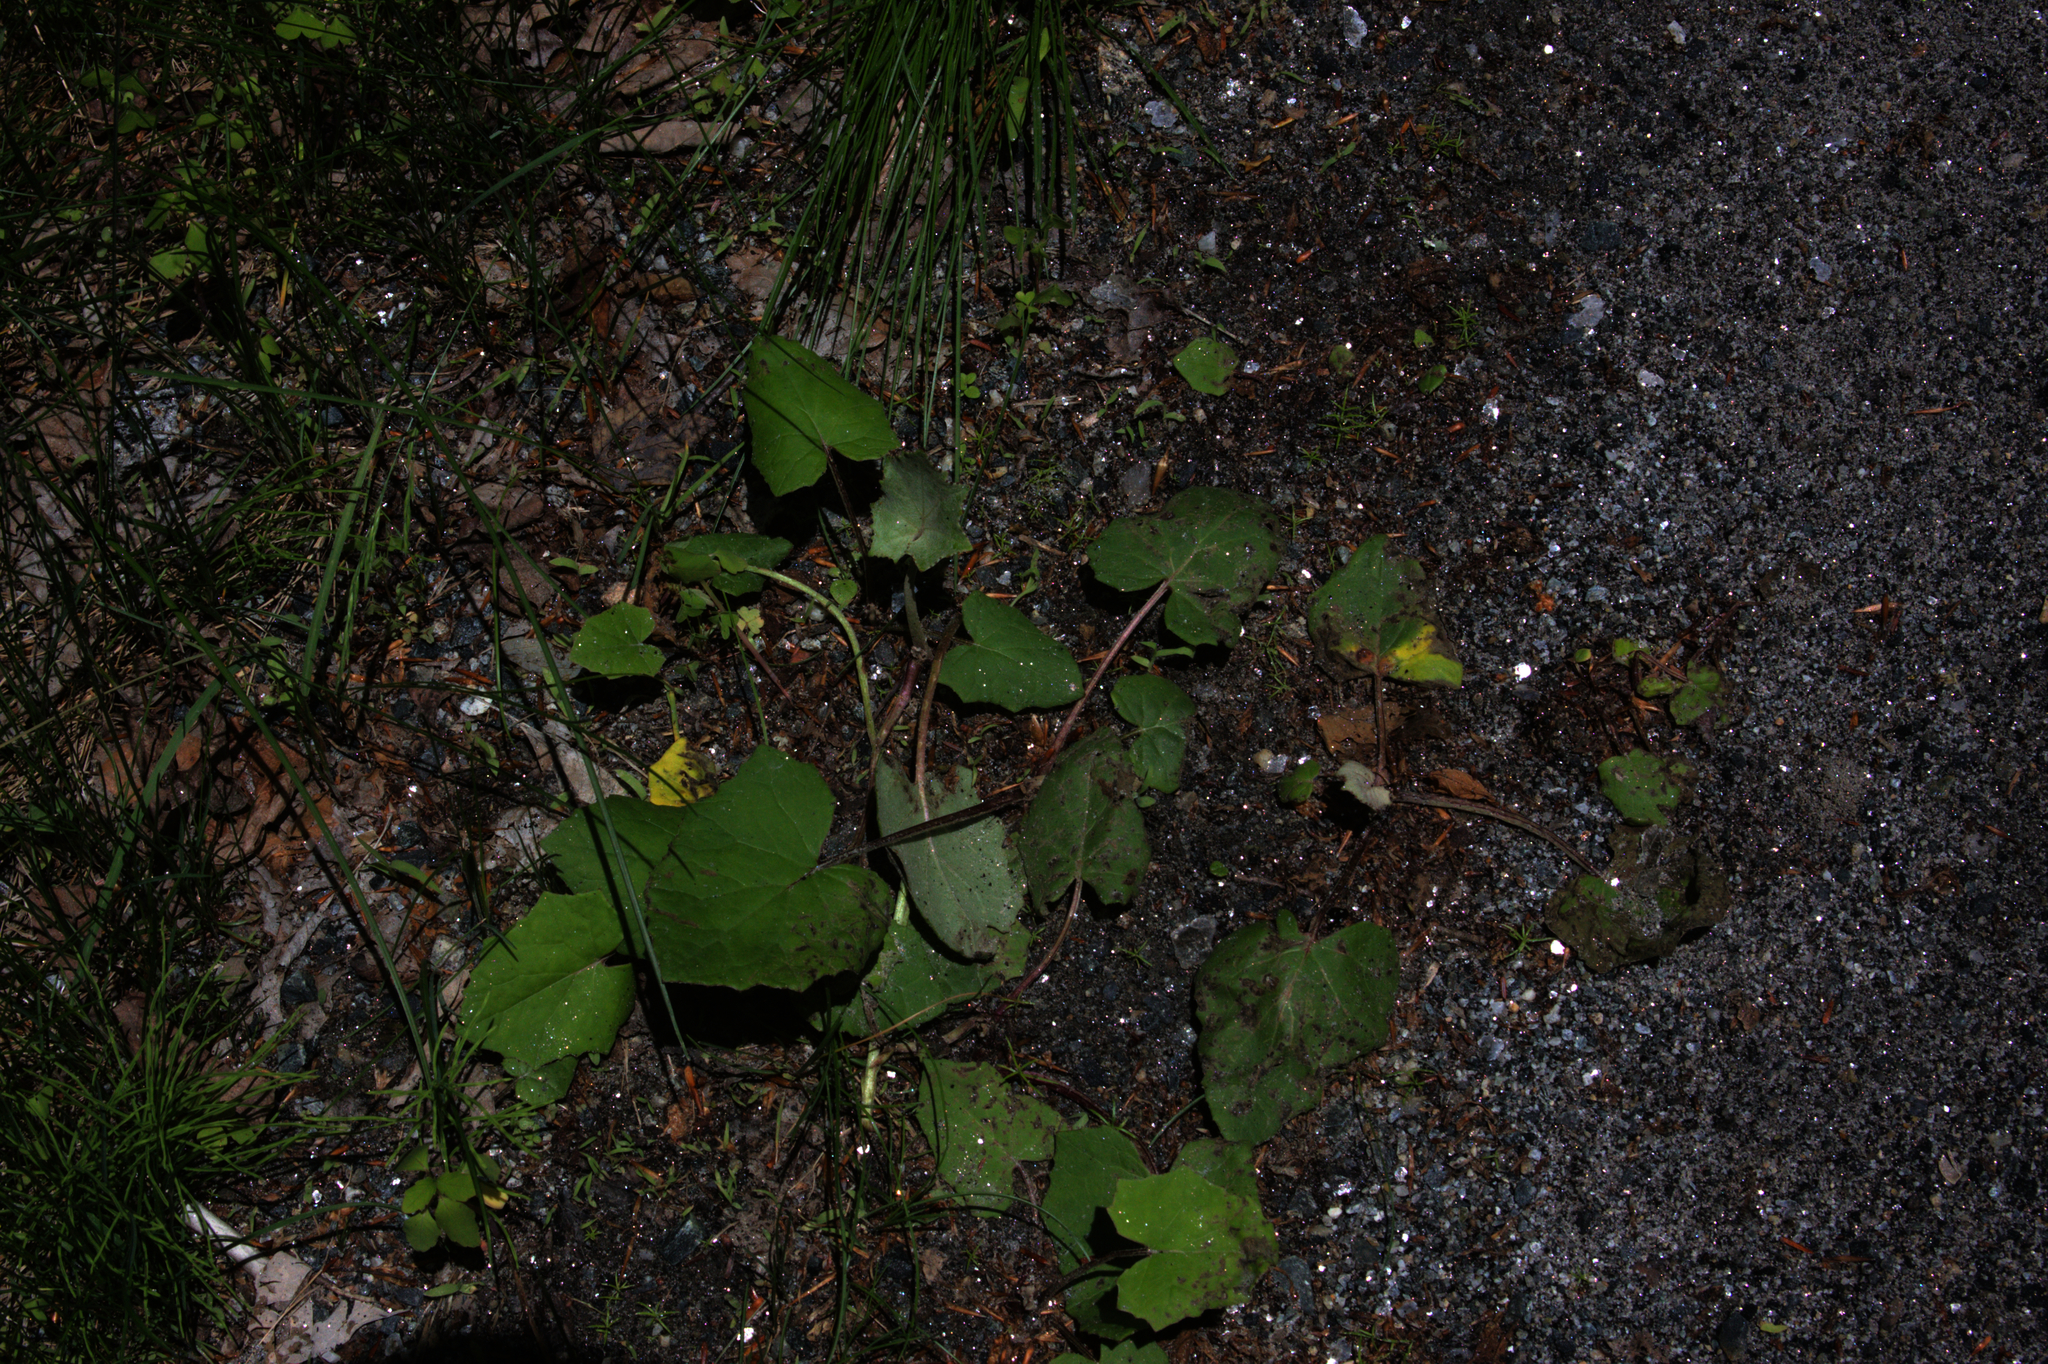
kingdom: Plantae
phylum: Tracheophyta
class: Magnoliopsida
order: Asterales
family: Asteraceae
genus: Tussilago
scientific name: Tussilago farfara
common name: Coltsfoot
